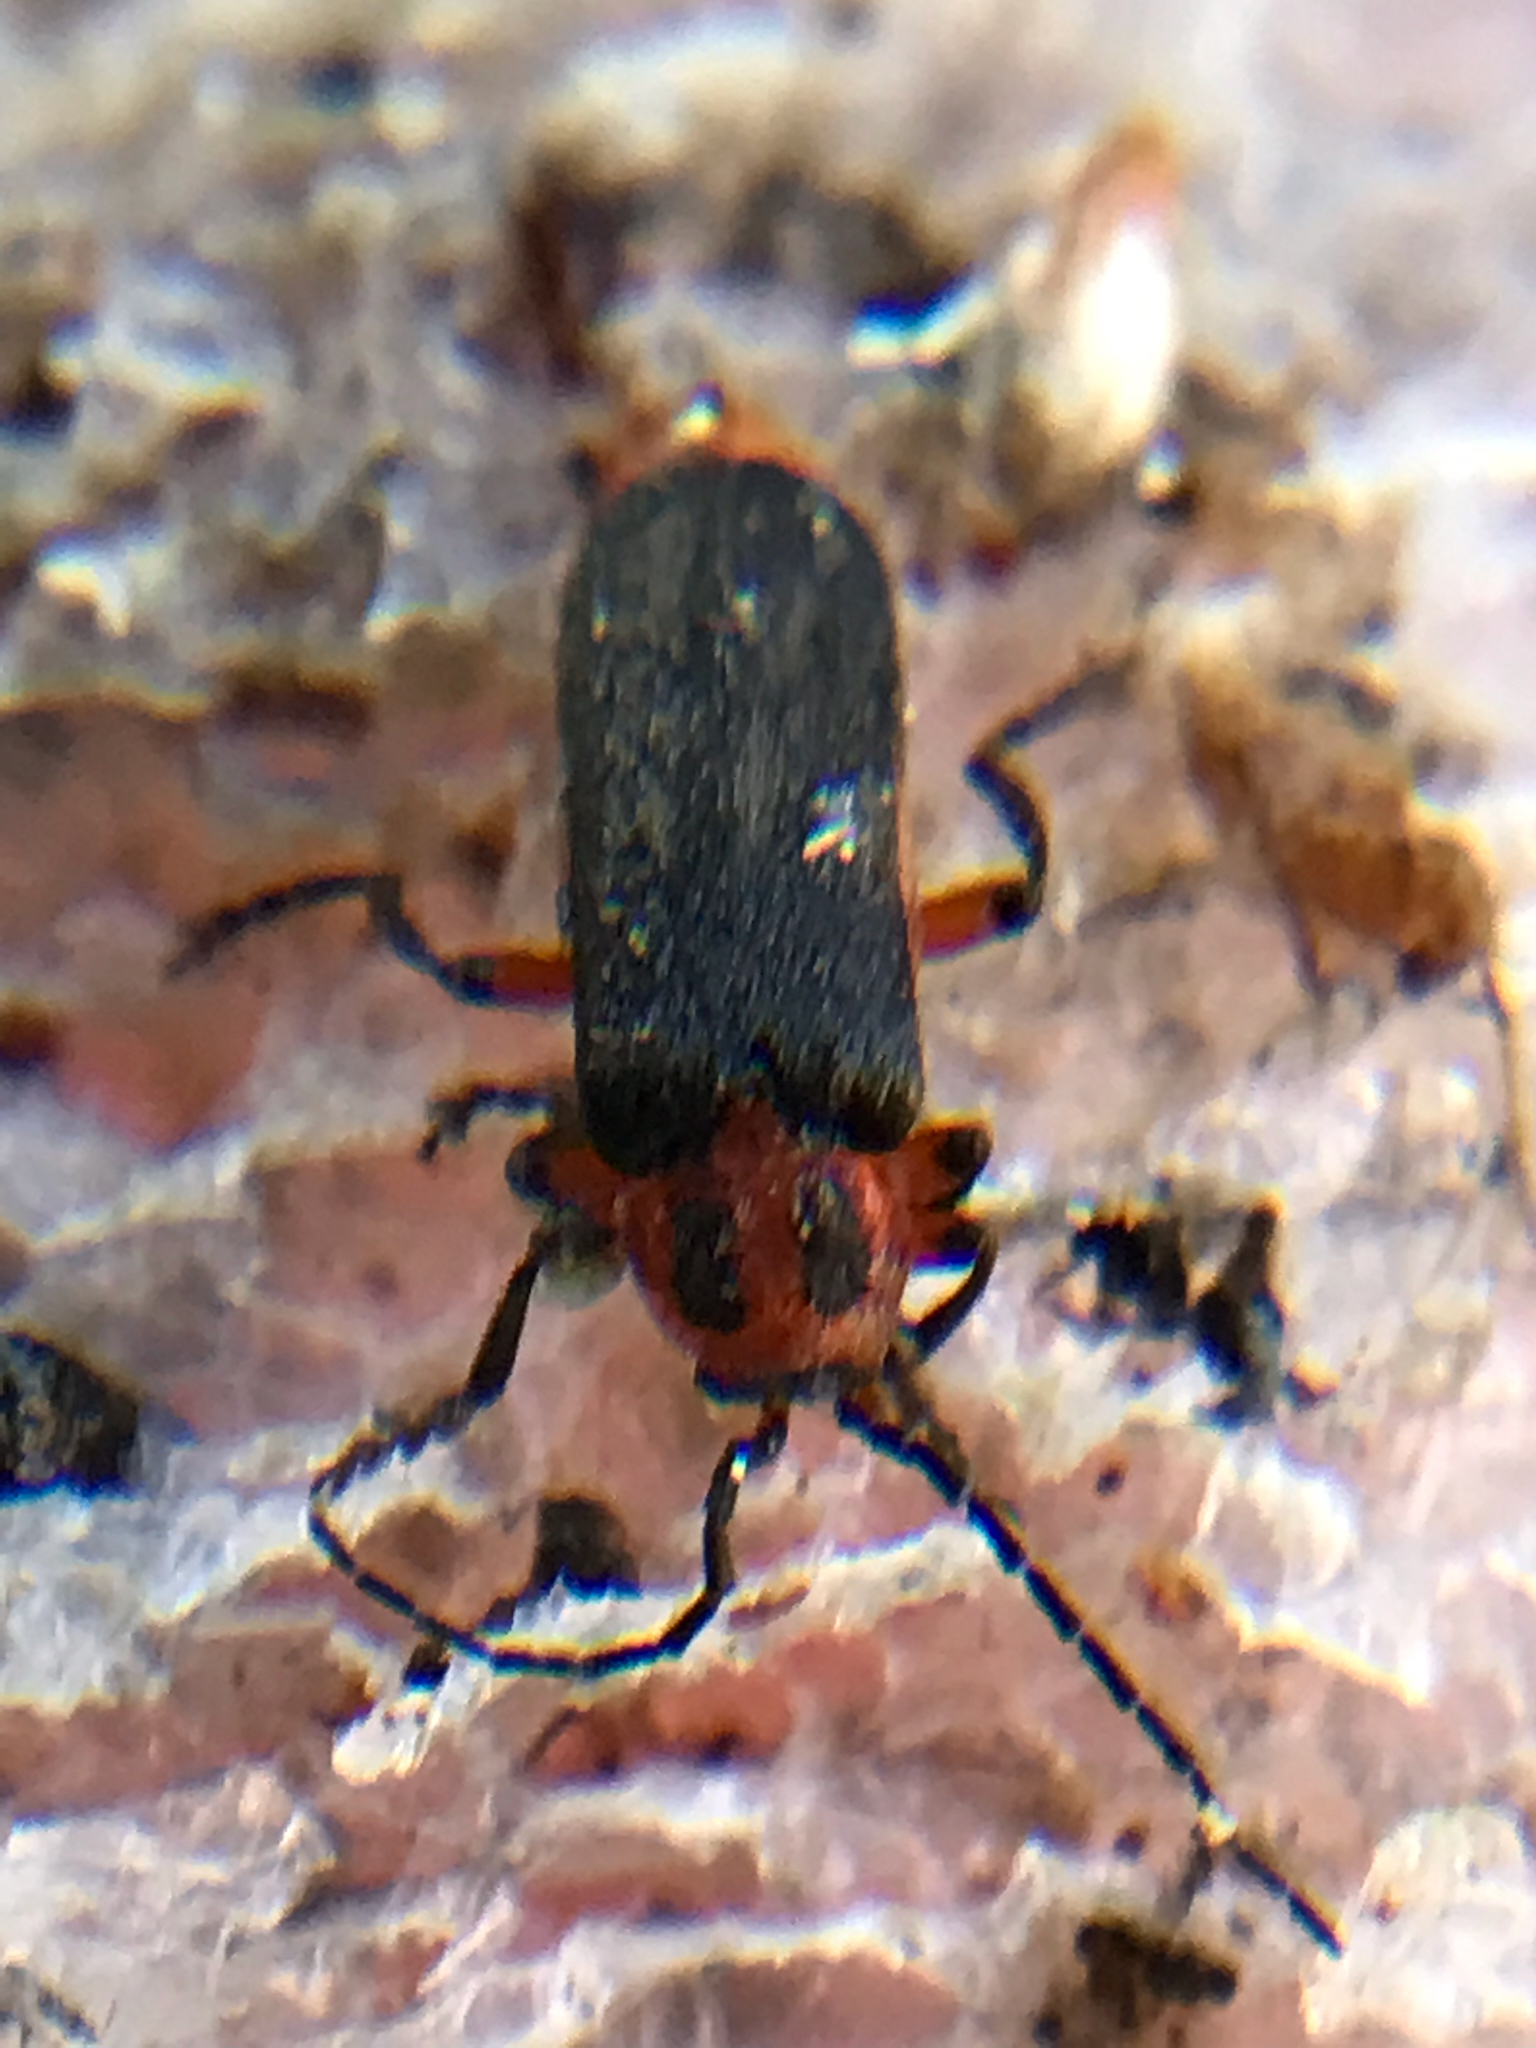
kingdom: Animalia
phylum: Arthropoda
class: Insecta
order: Coleoptera
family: Cantharidae
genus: Atalantycha
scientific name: Atalantycha bilineata
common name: Two-lined leatherwing
